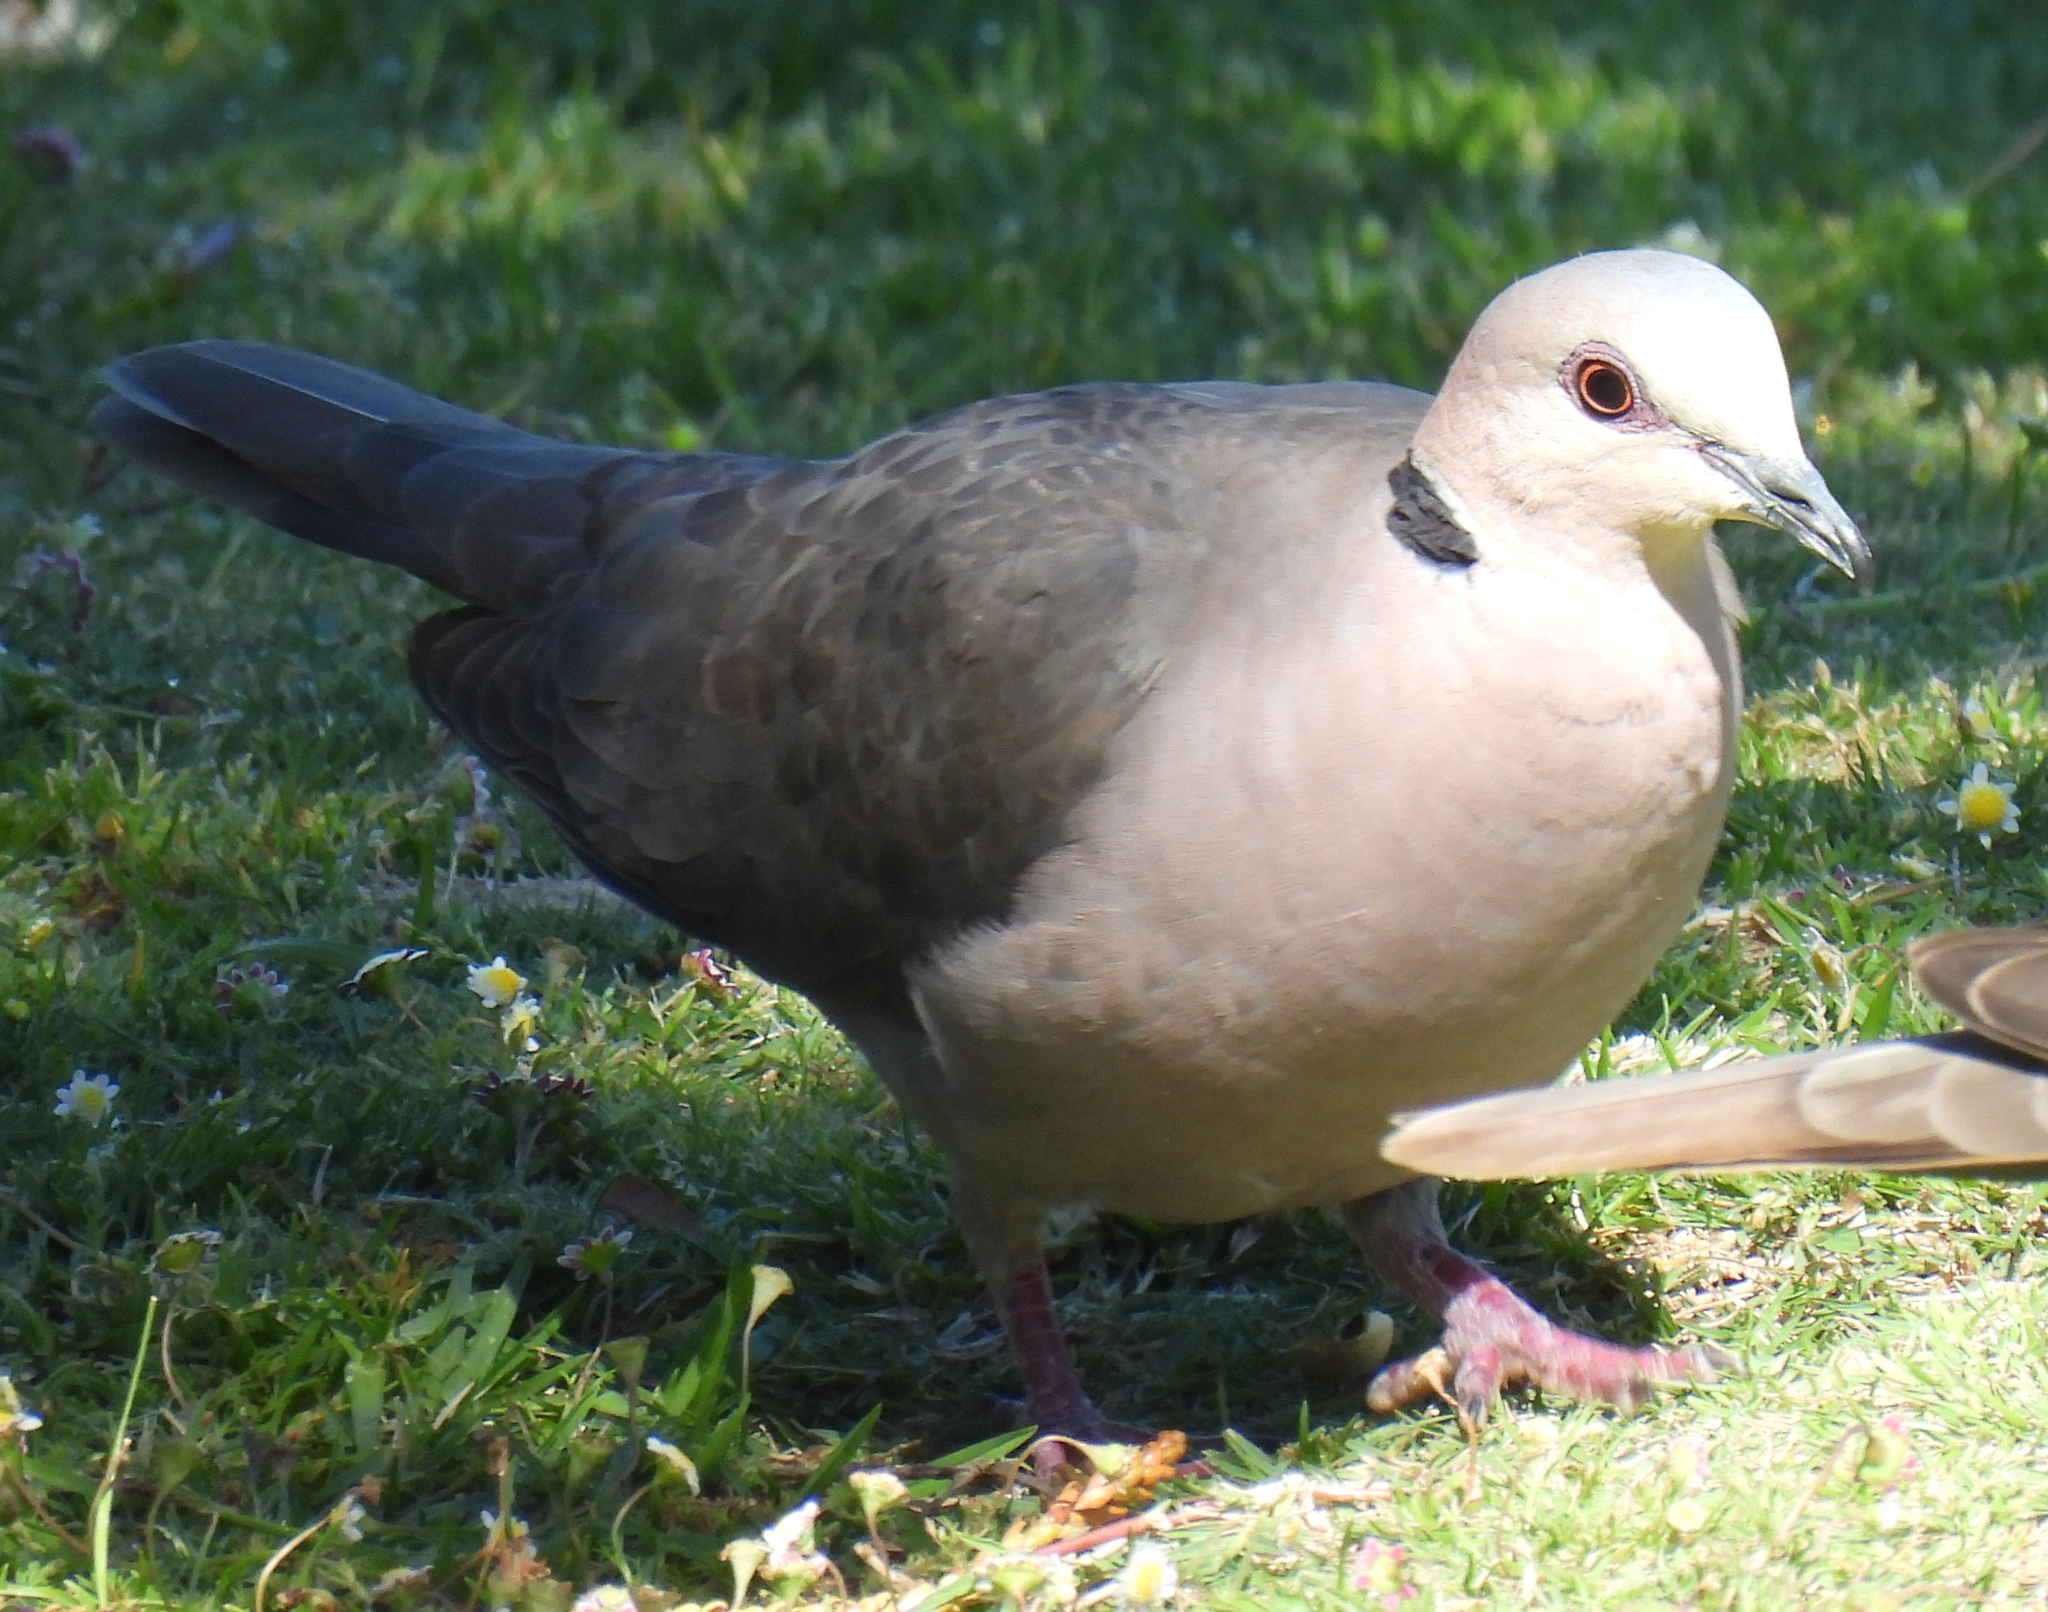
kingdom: Animalia
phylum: Chordata
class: Aves
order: Columbiformes
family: Columbidae
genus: Streptopelia
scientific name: Streptopelia semitorquata
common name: Red-eyed dove
